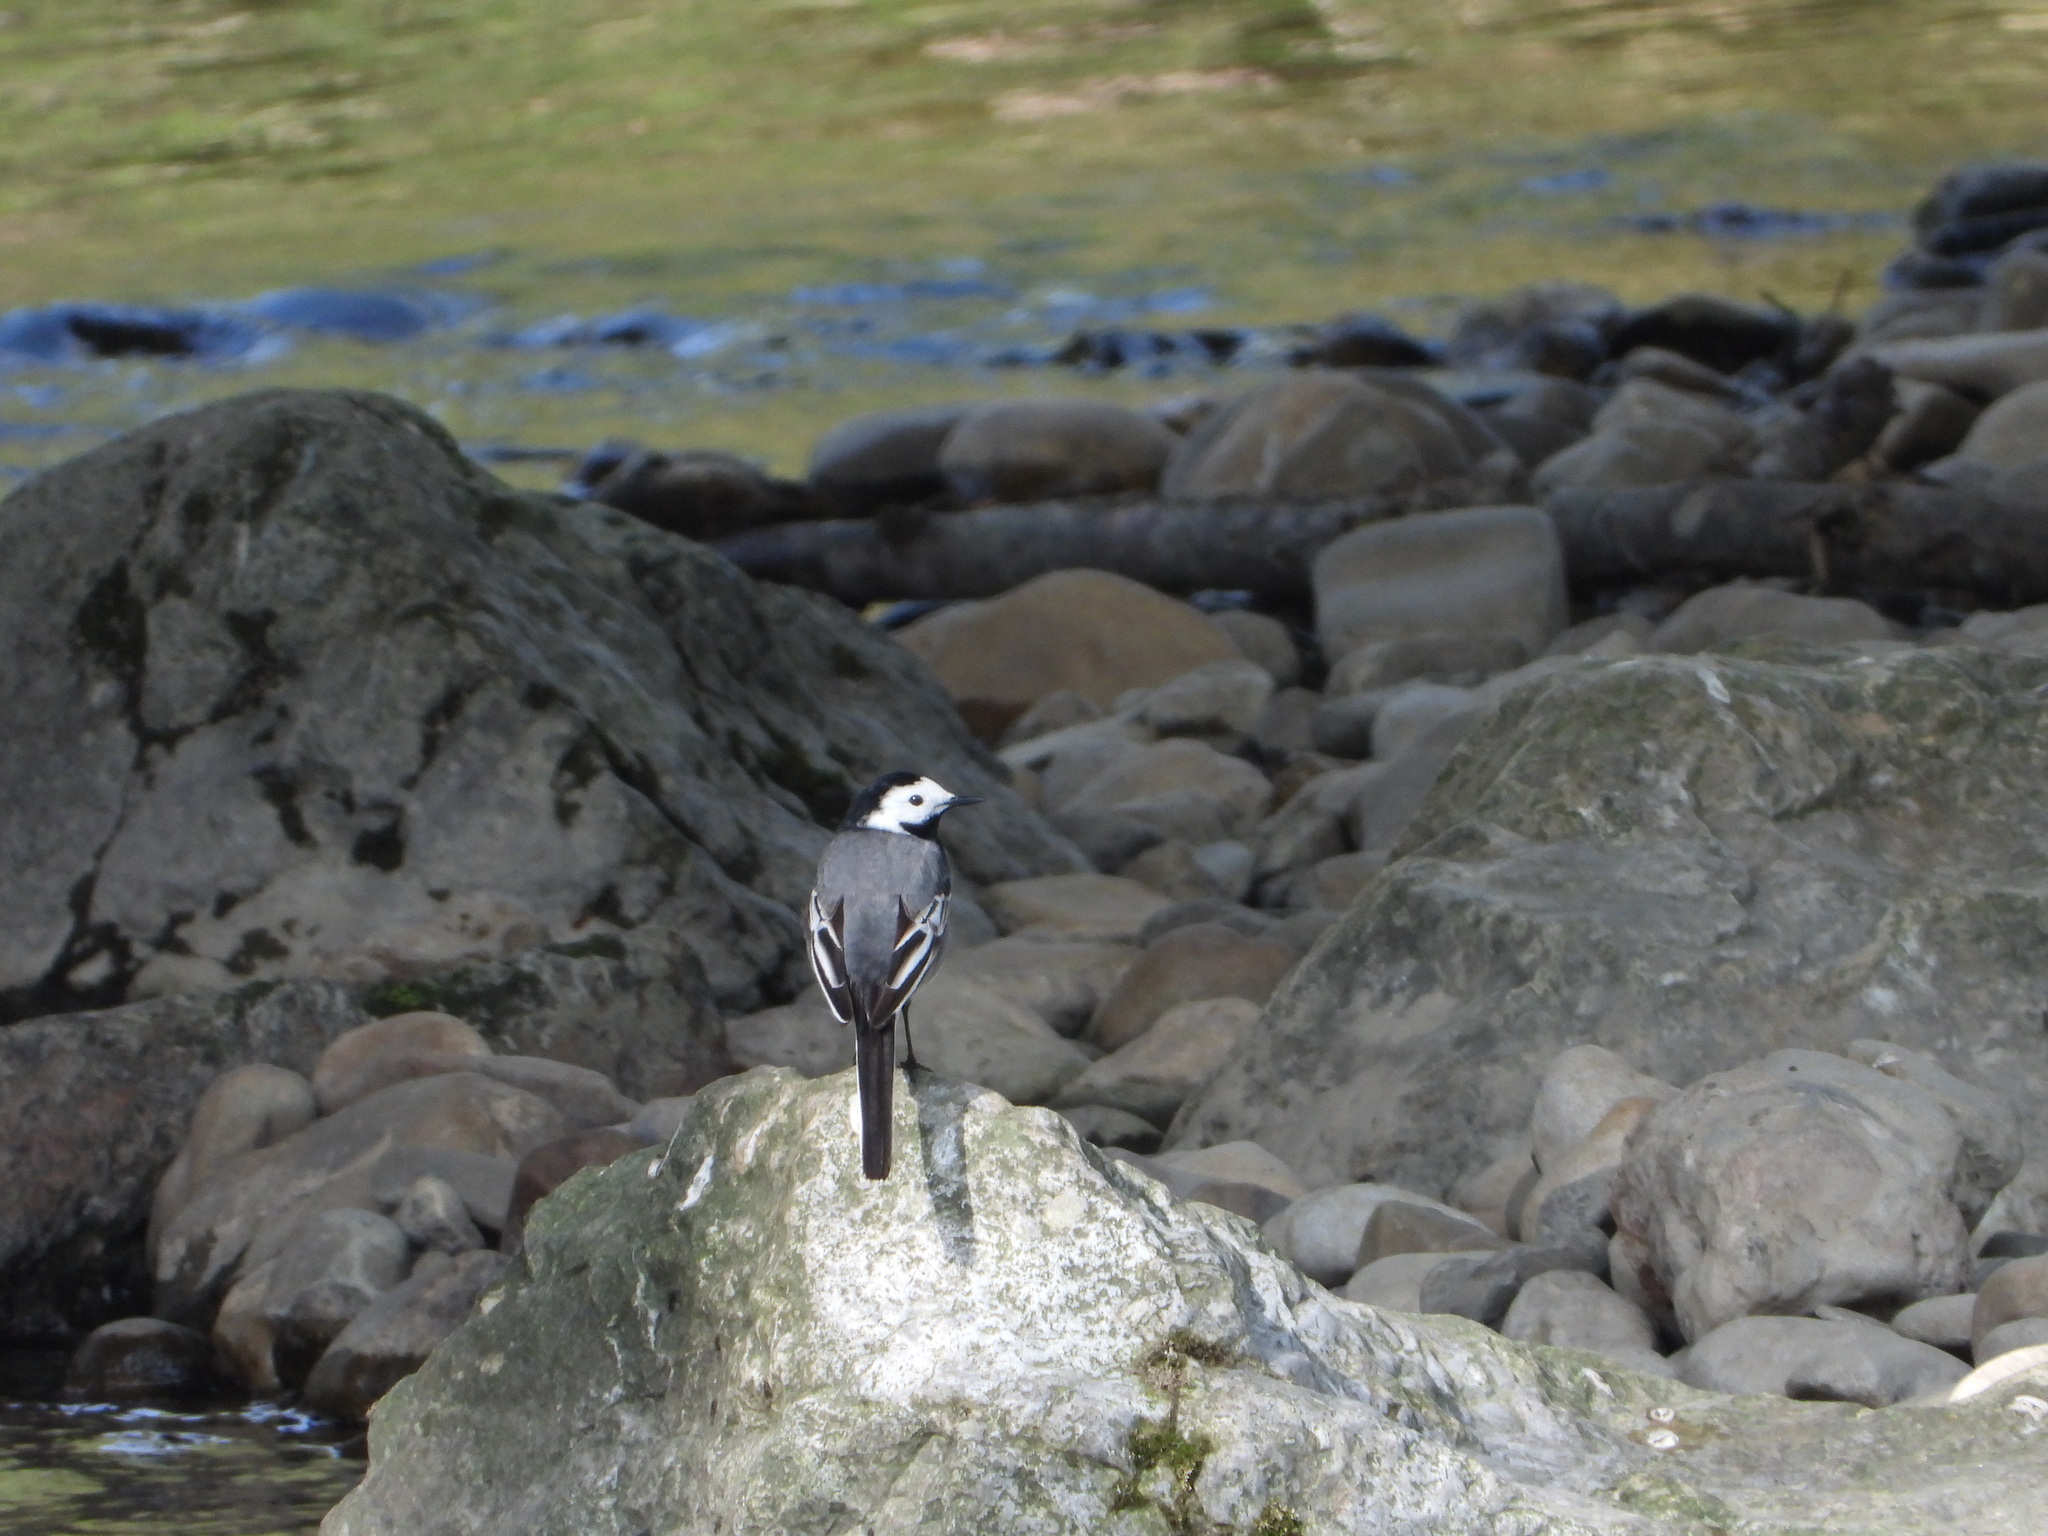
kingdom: Animalia
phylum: Chordata
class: Aves
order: Passeriformes
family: Motacillidae
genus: Motacilla
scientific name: Motacilla alba
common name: White wagtail
